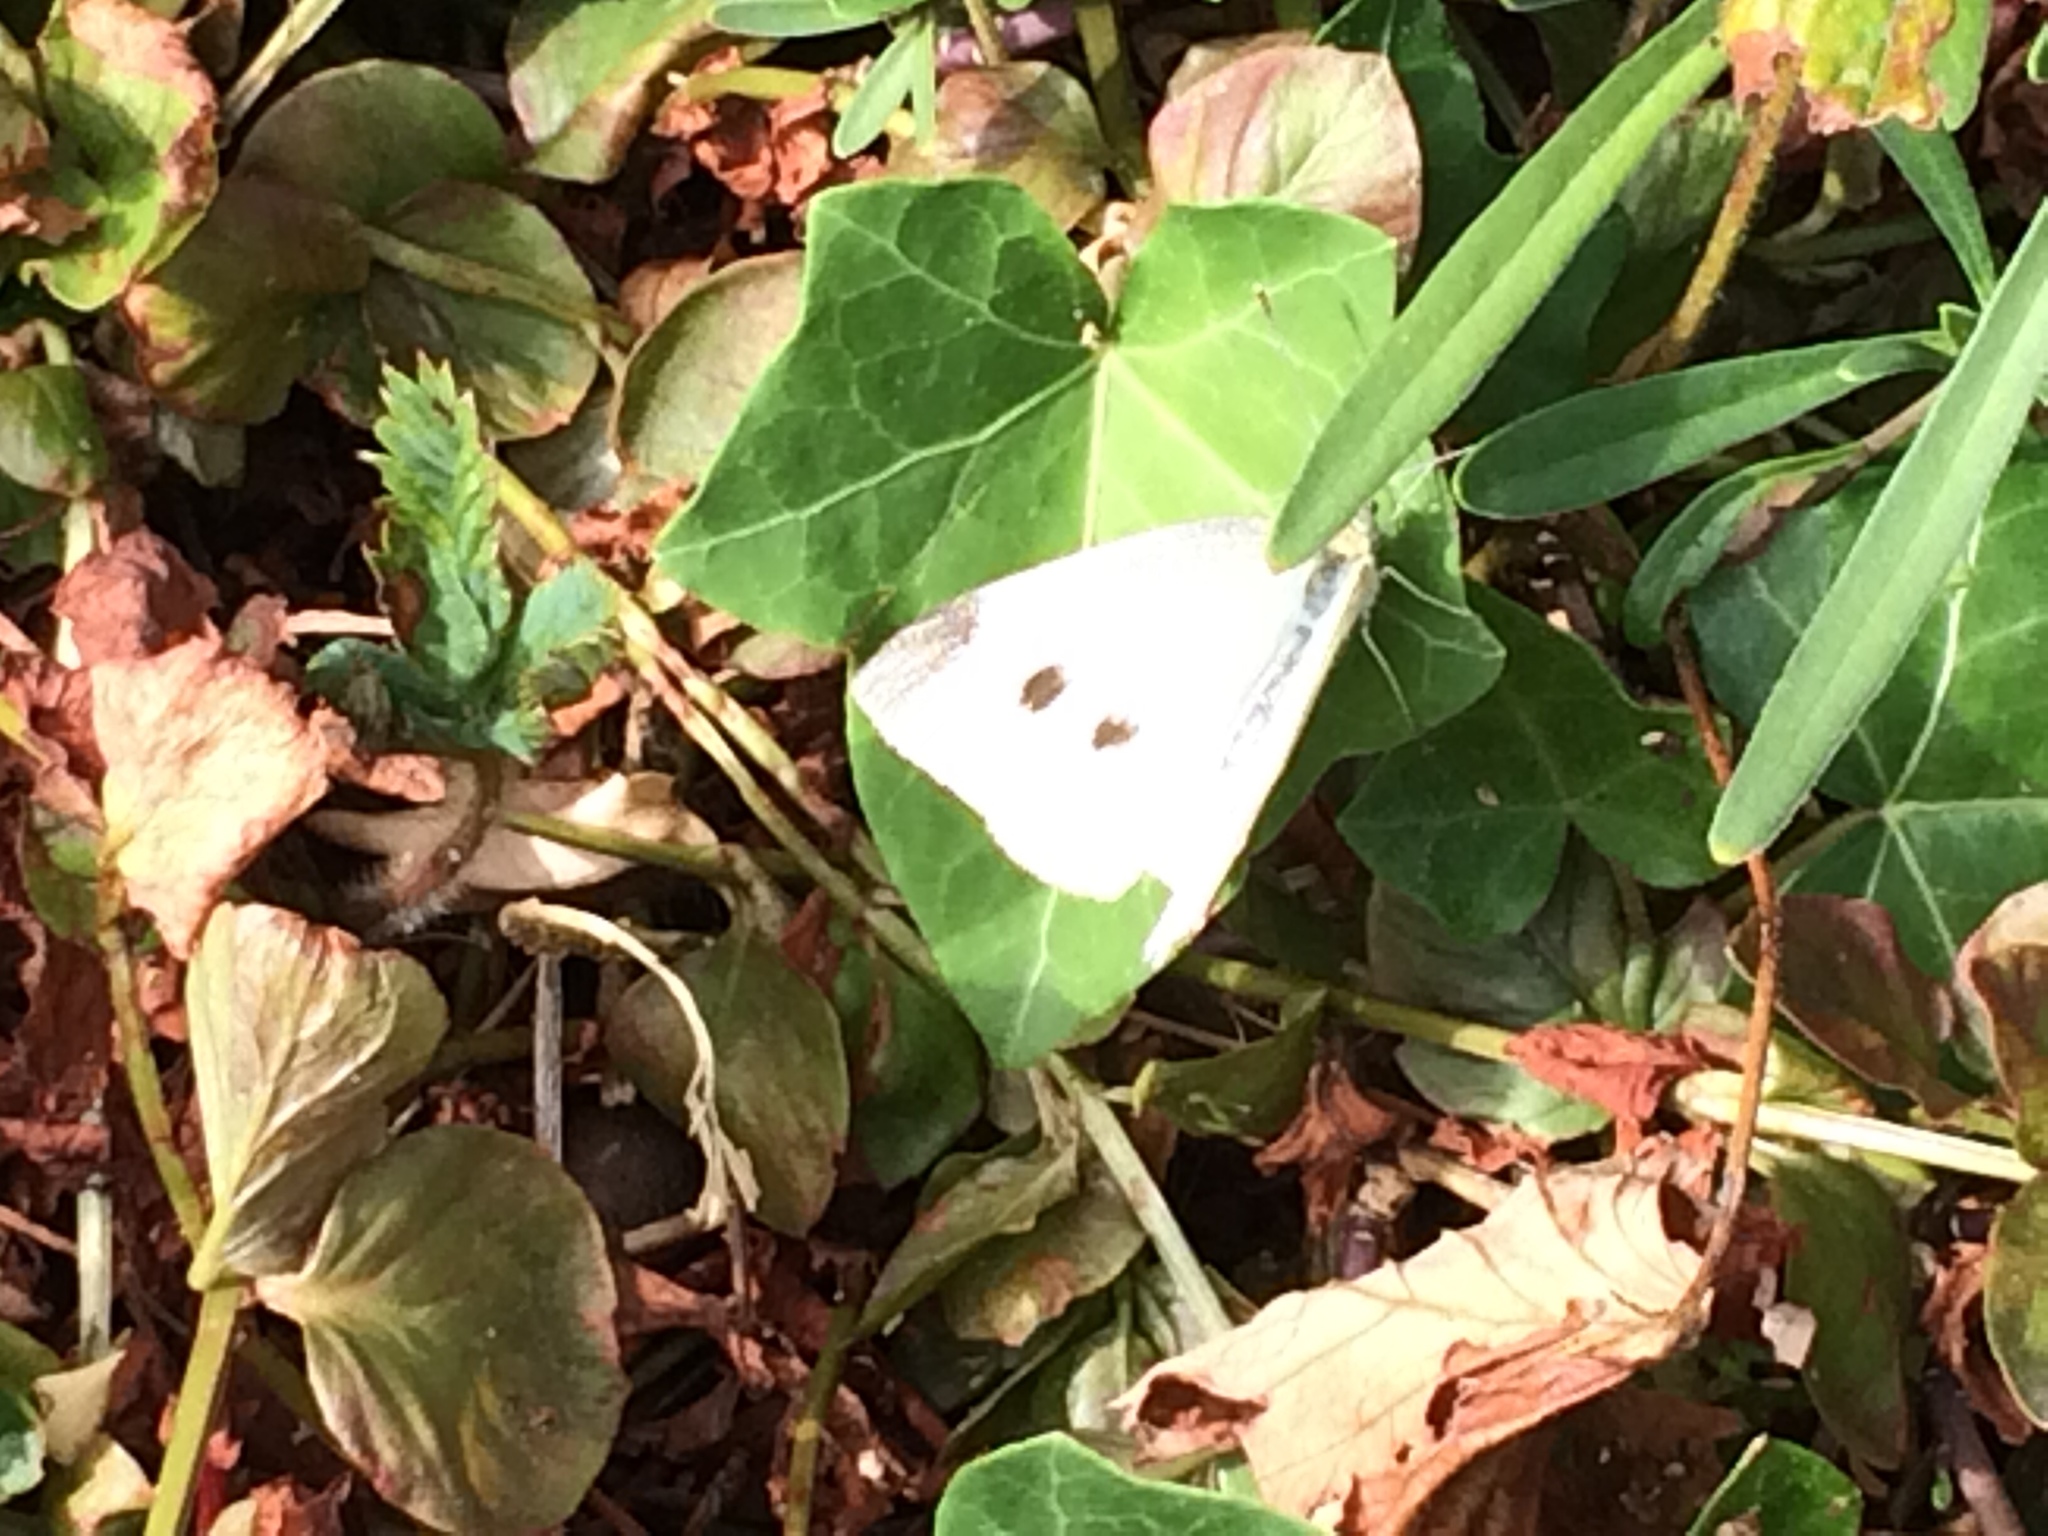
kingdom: Animalia
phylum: Arthropoda
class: Insecta
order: Lepidoptera
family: Pieridae
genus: Pieris
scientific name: Pieris rapae
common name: Small white
